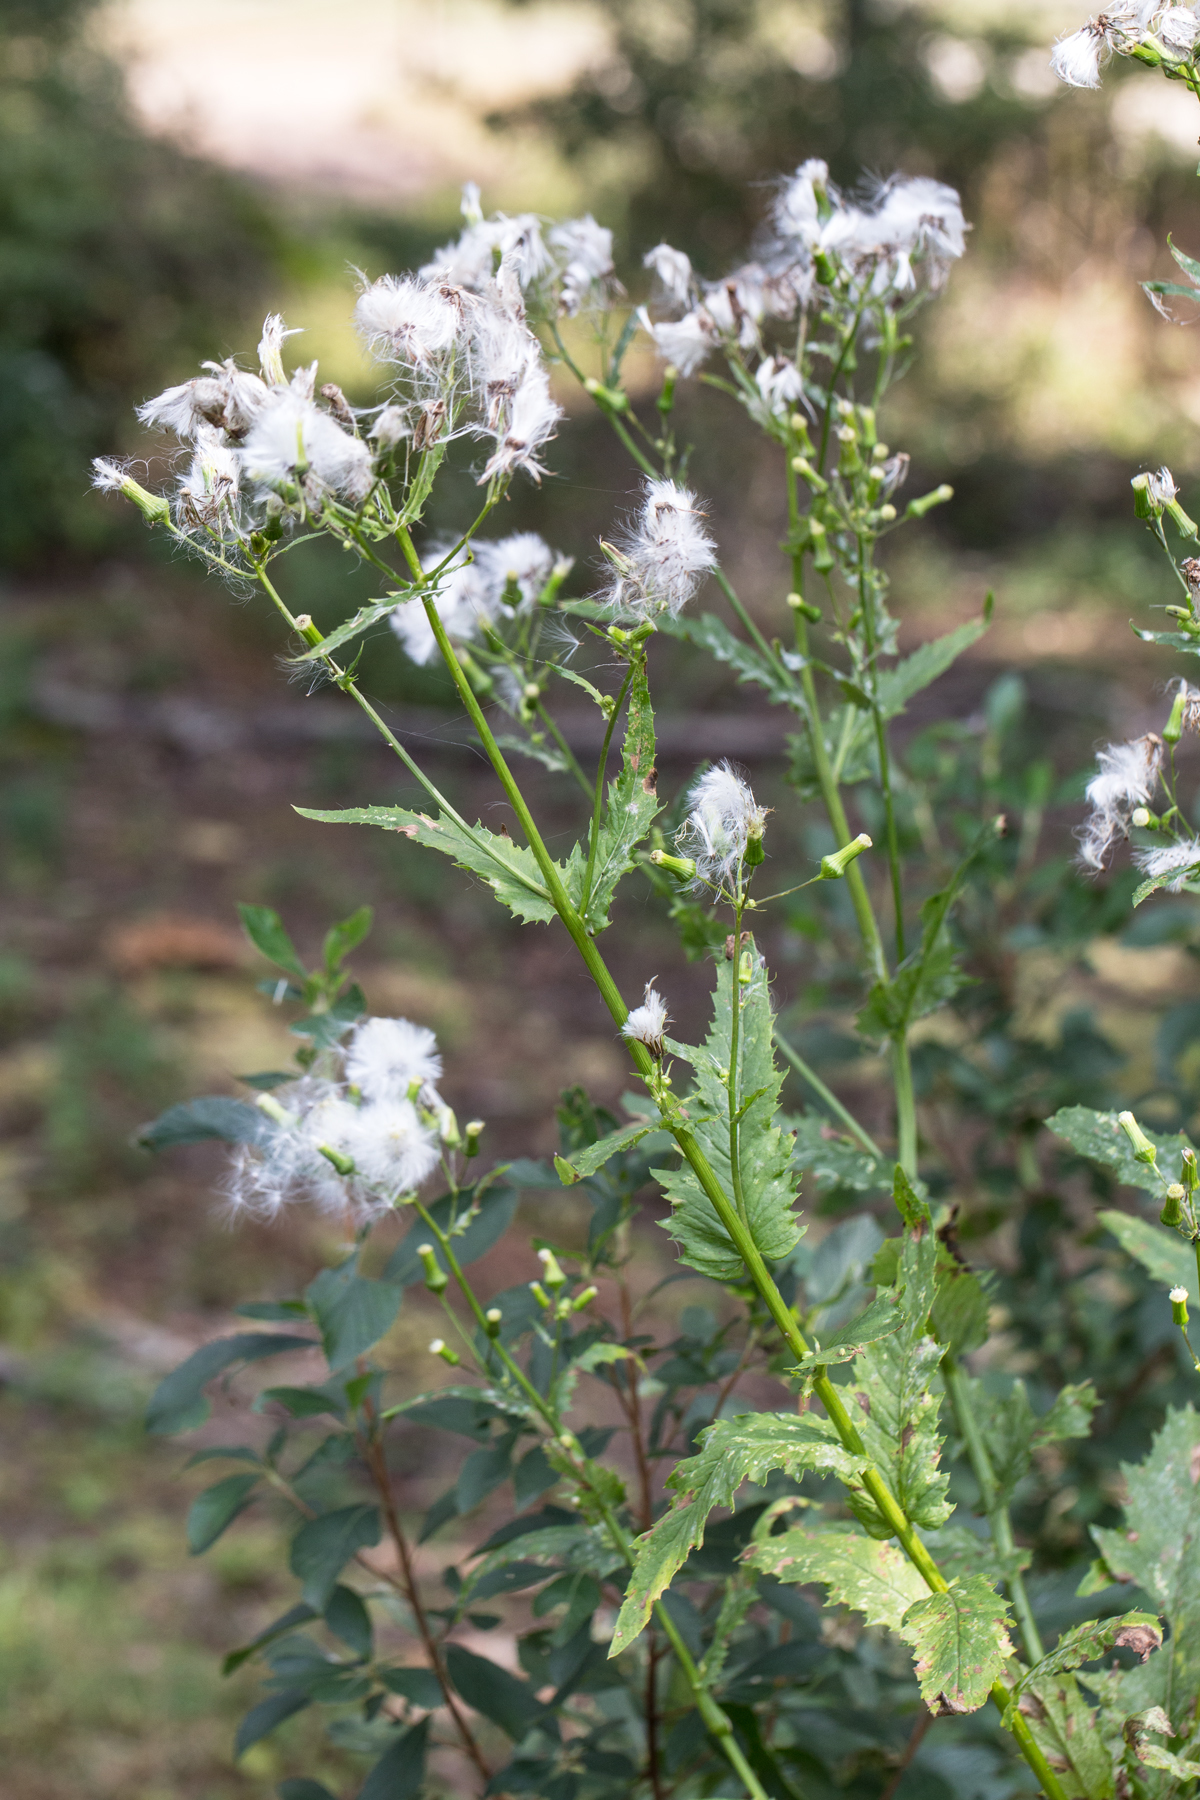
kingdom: Plantae
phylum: Tracheophyta
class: Magnoliopsida
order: Asterales
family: Asteraceae
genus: Erechtites
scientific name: Erechtites hieraciifolius
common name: American burnweed
